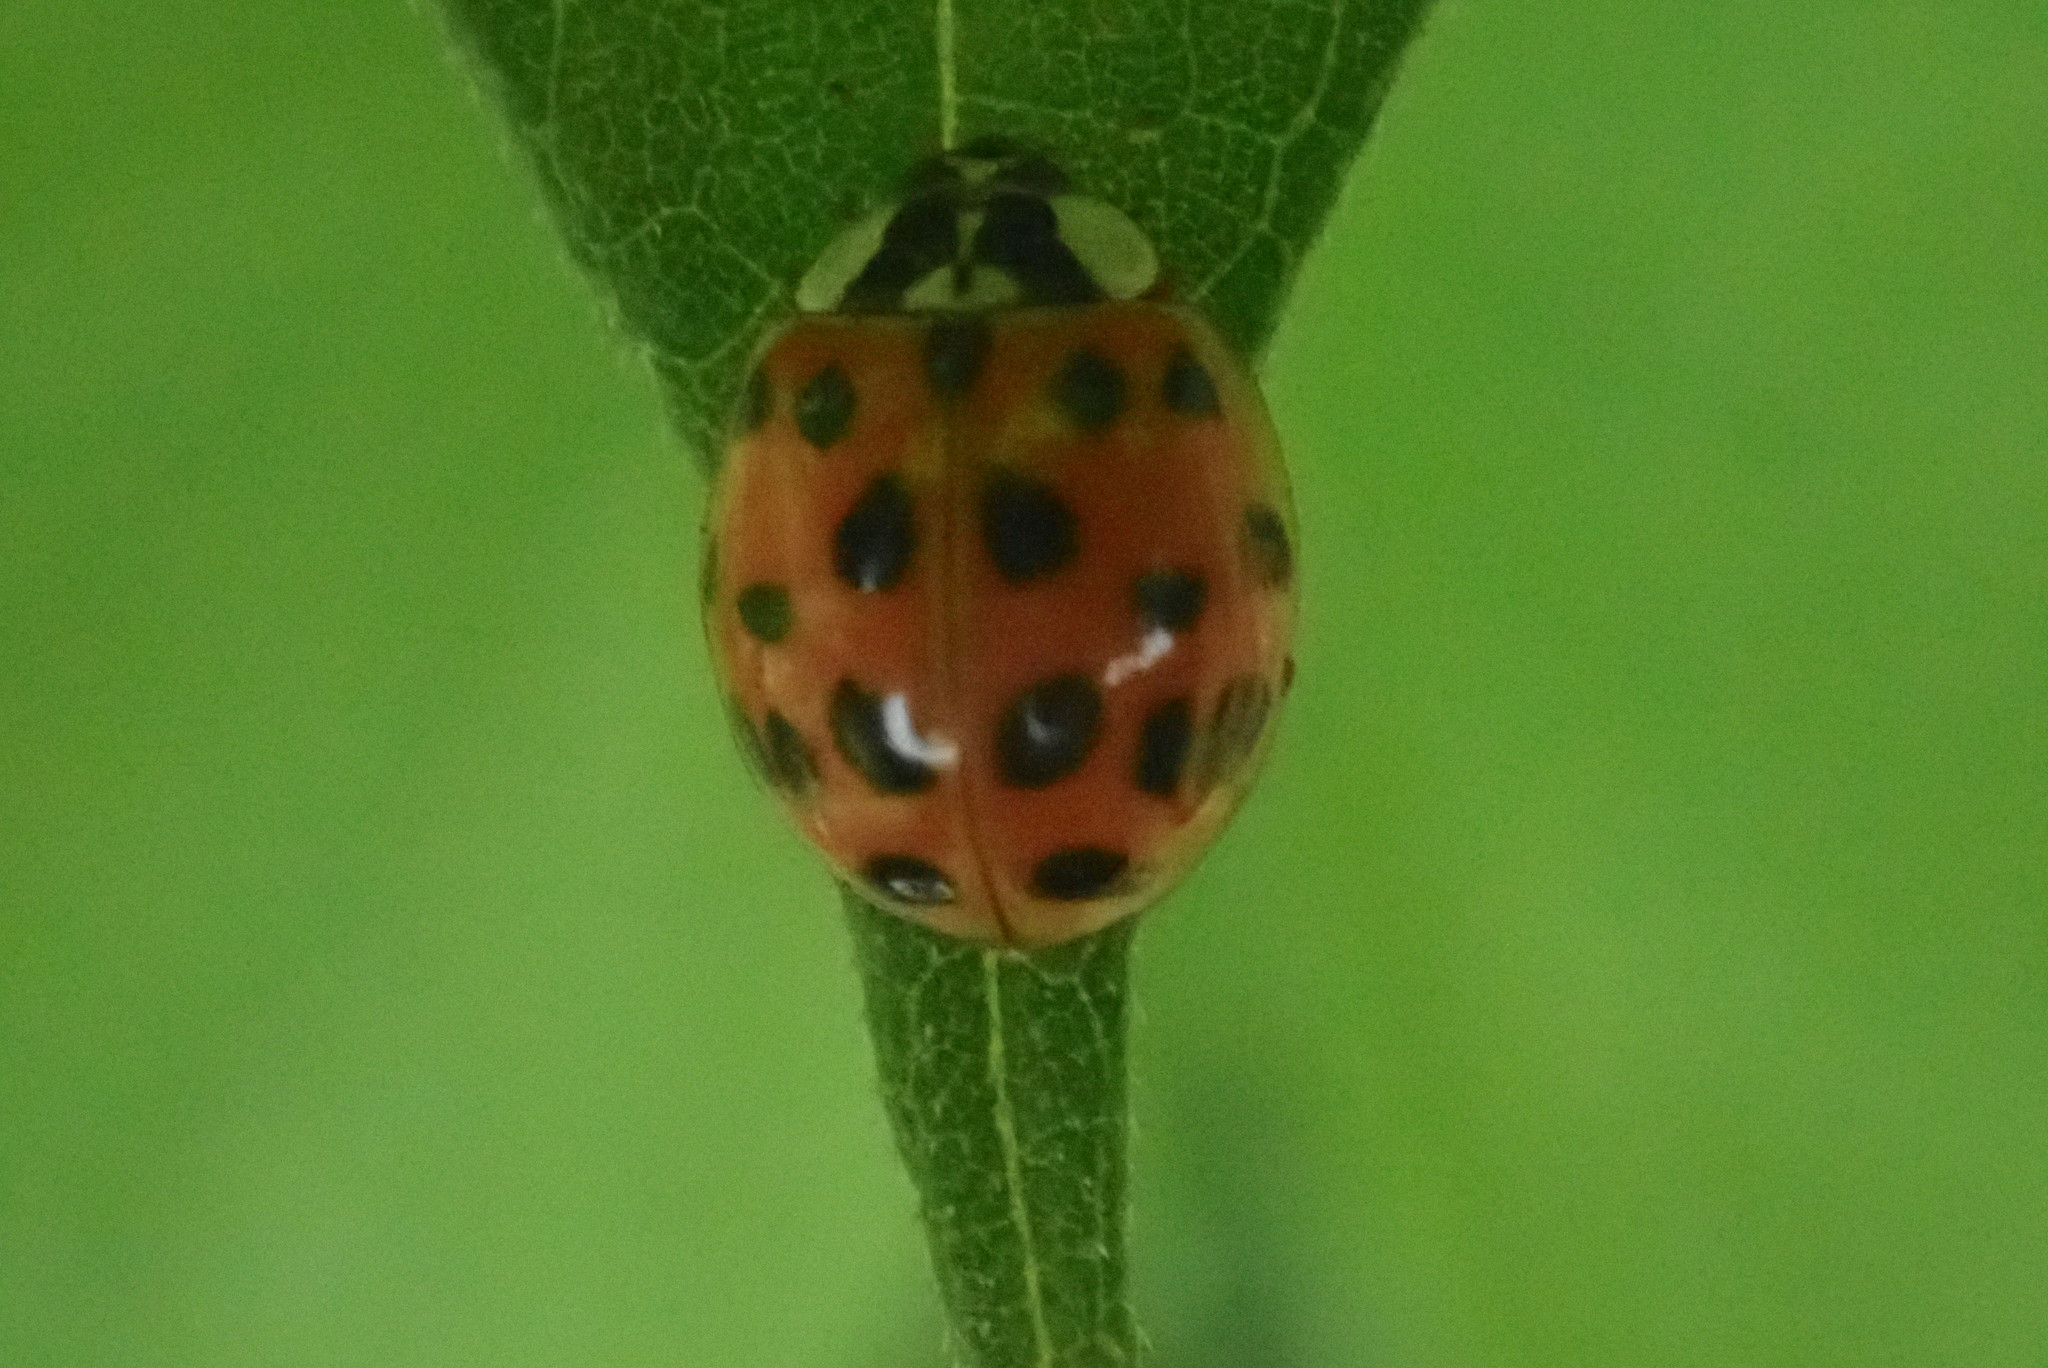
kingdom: Animalia
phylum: Arthropoda
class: Insecta
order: Coleoptera
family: Coccinellidae
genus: Harmonia
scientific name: Harmonia axyridis
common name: Harlequin ladybird
